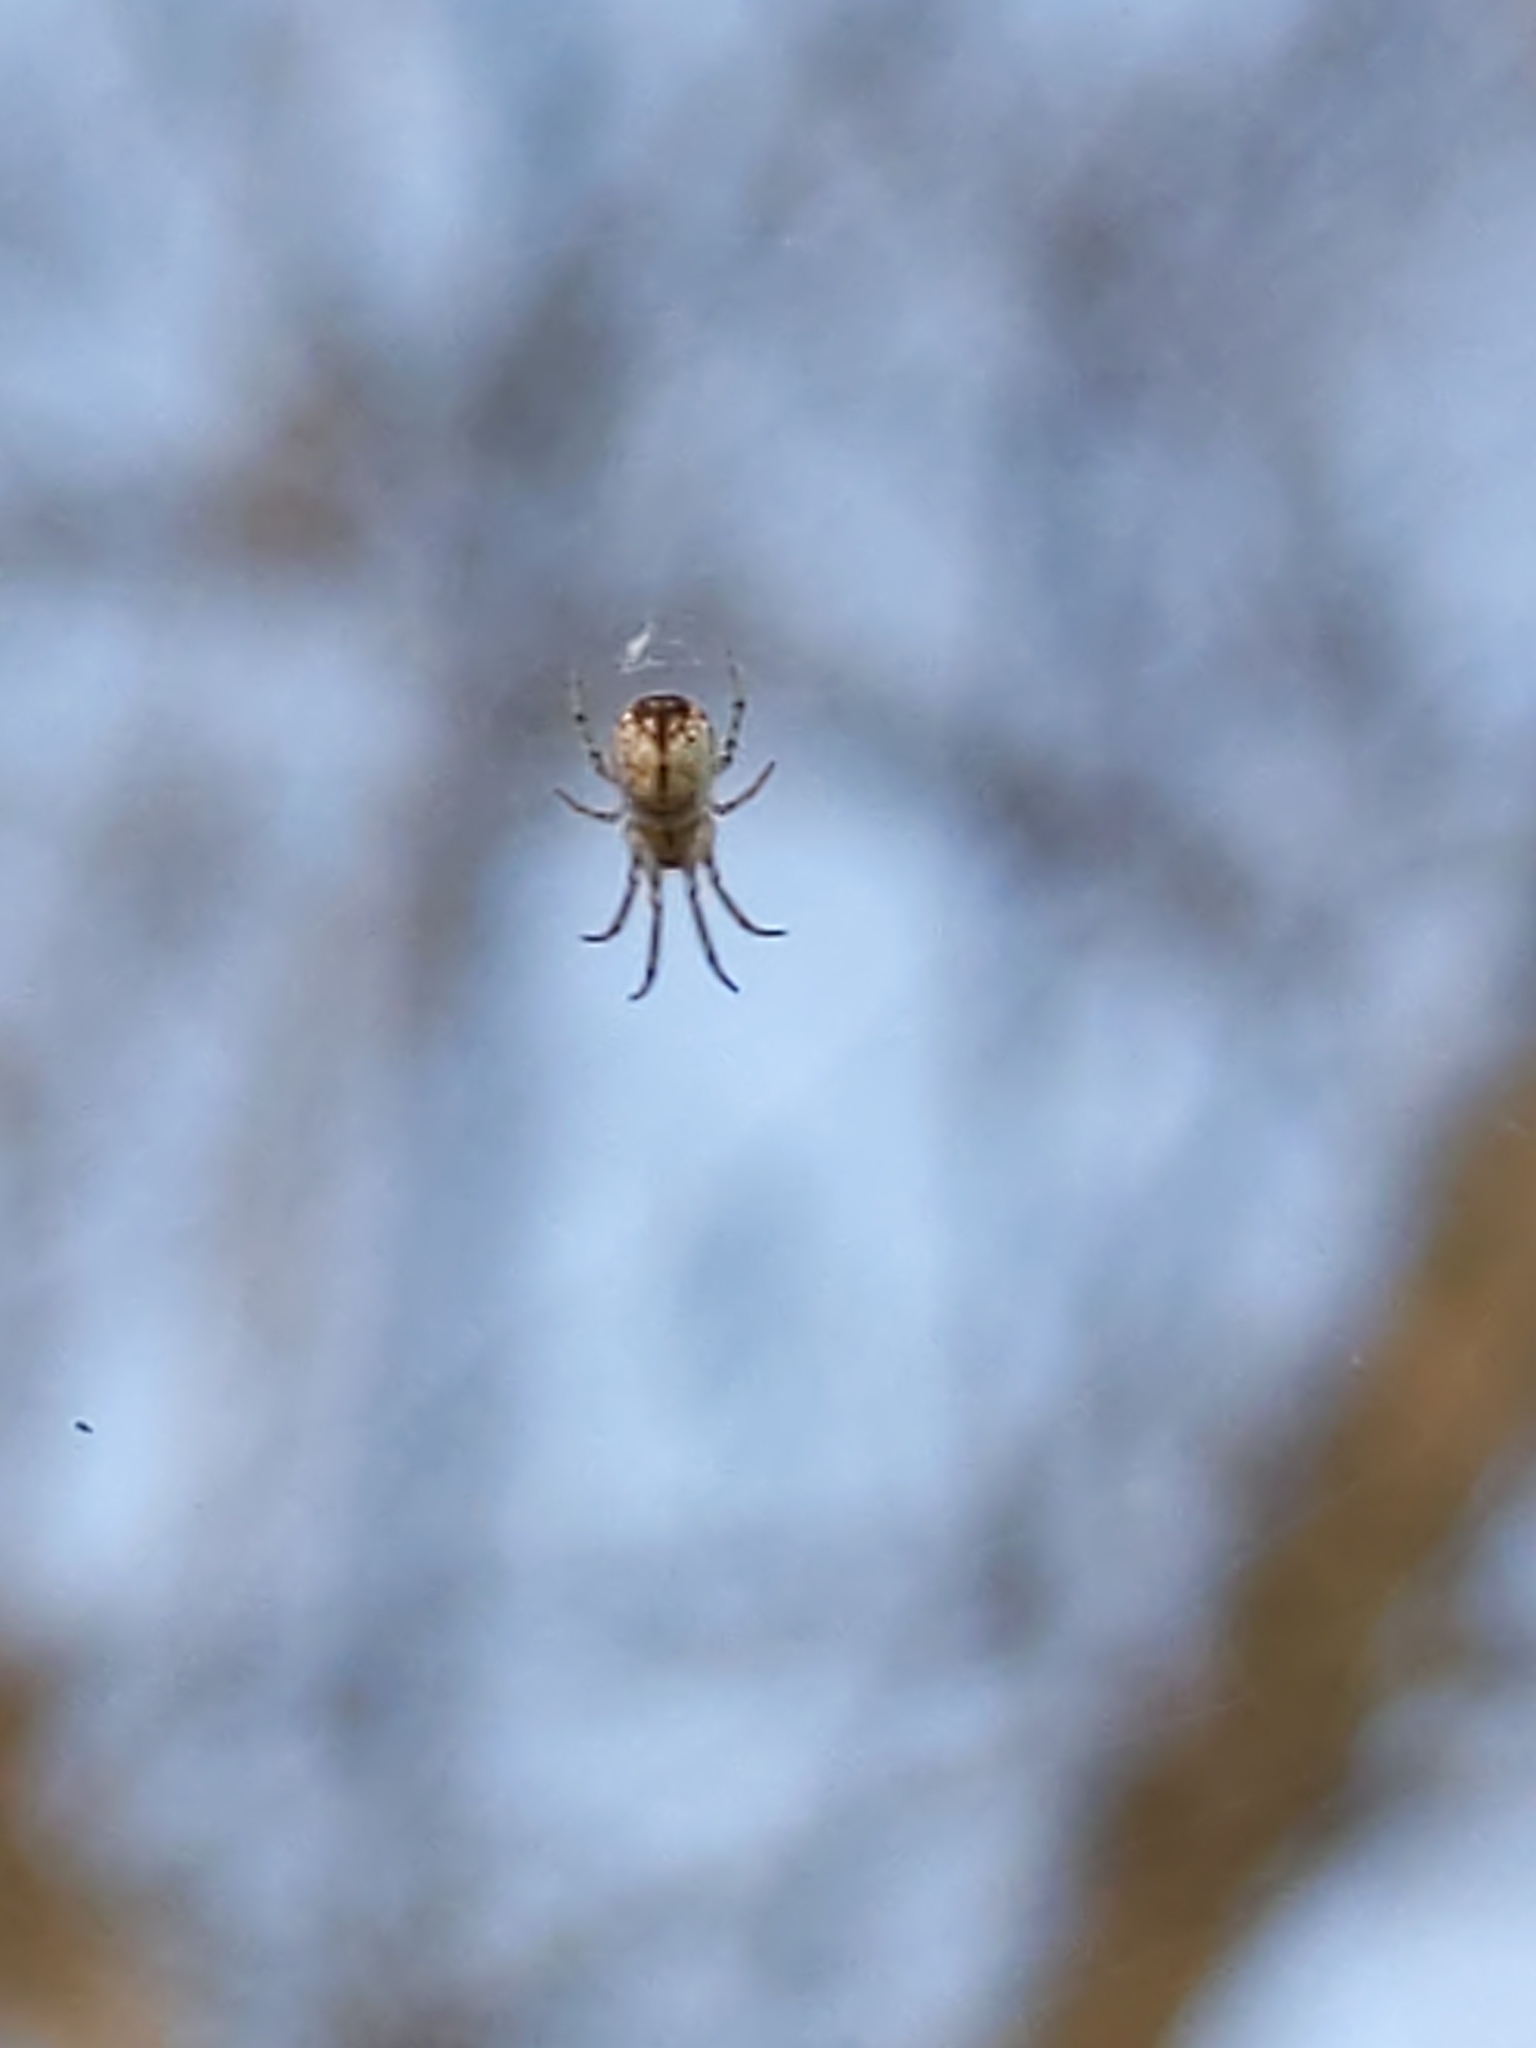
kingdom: Animalia
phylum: Arthropoda
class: Arachnida
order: Araneae
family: Tetragnathidae
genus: Leucauge
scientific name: Leucauge venusta
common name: Longjawed orb weavers
